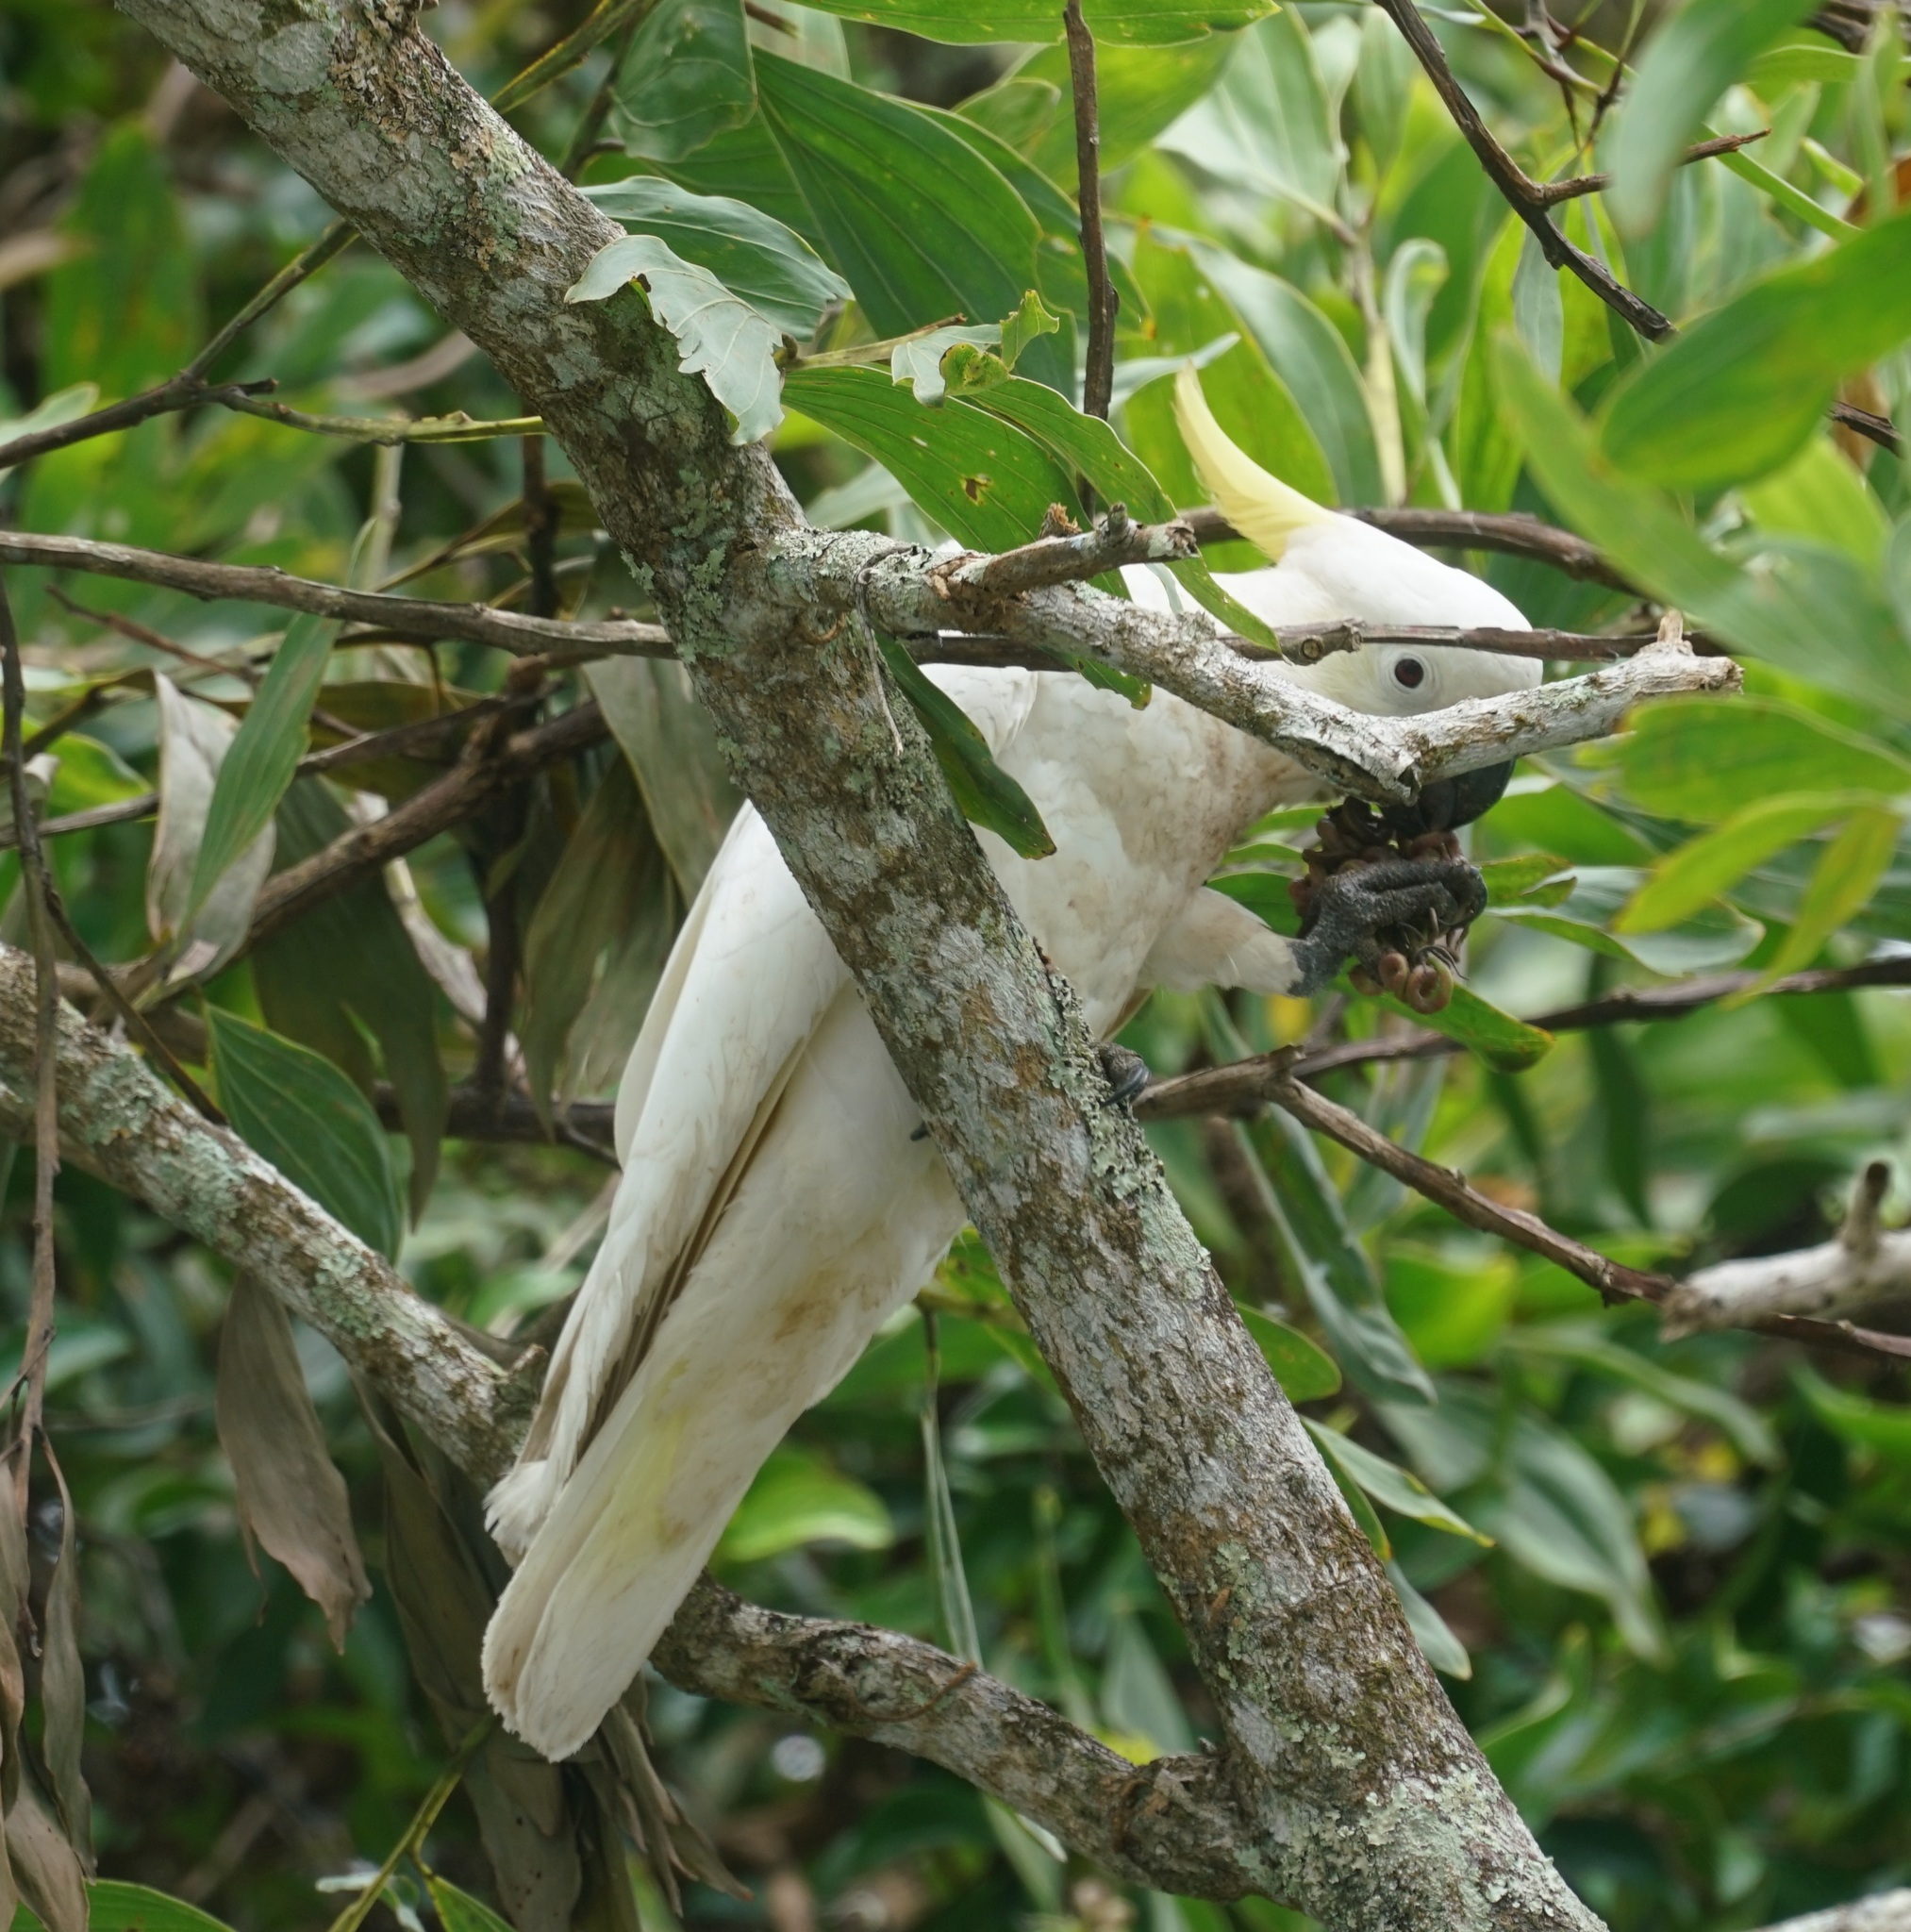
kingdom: Animalia
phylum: Chordata
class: Aves
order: Psittaciformes
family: Psittacidae
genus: Cacatua
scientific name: Cacatua galerita
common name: Sulphur-crested cockatoo
